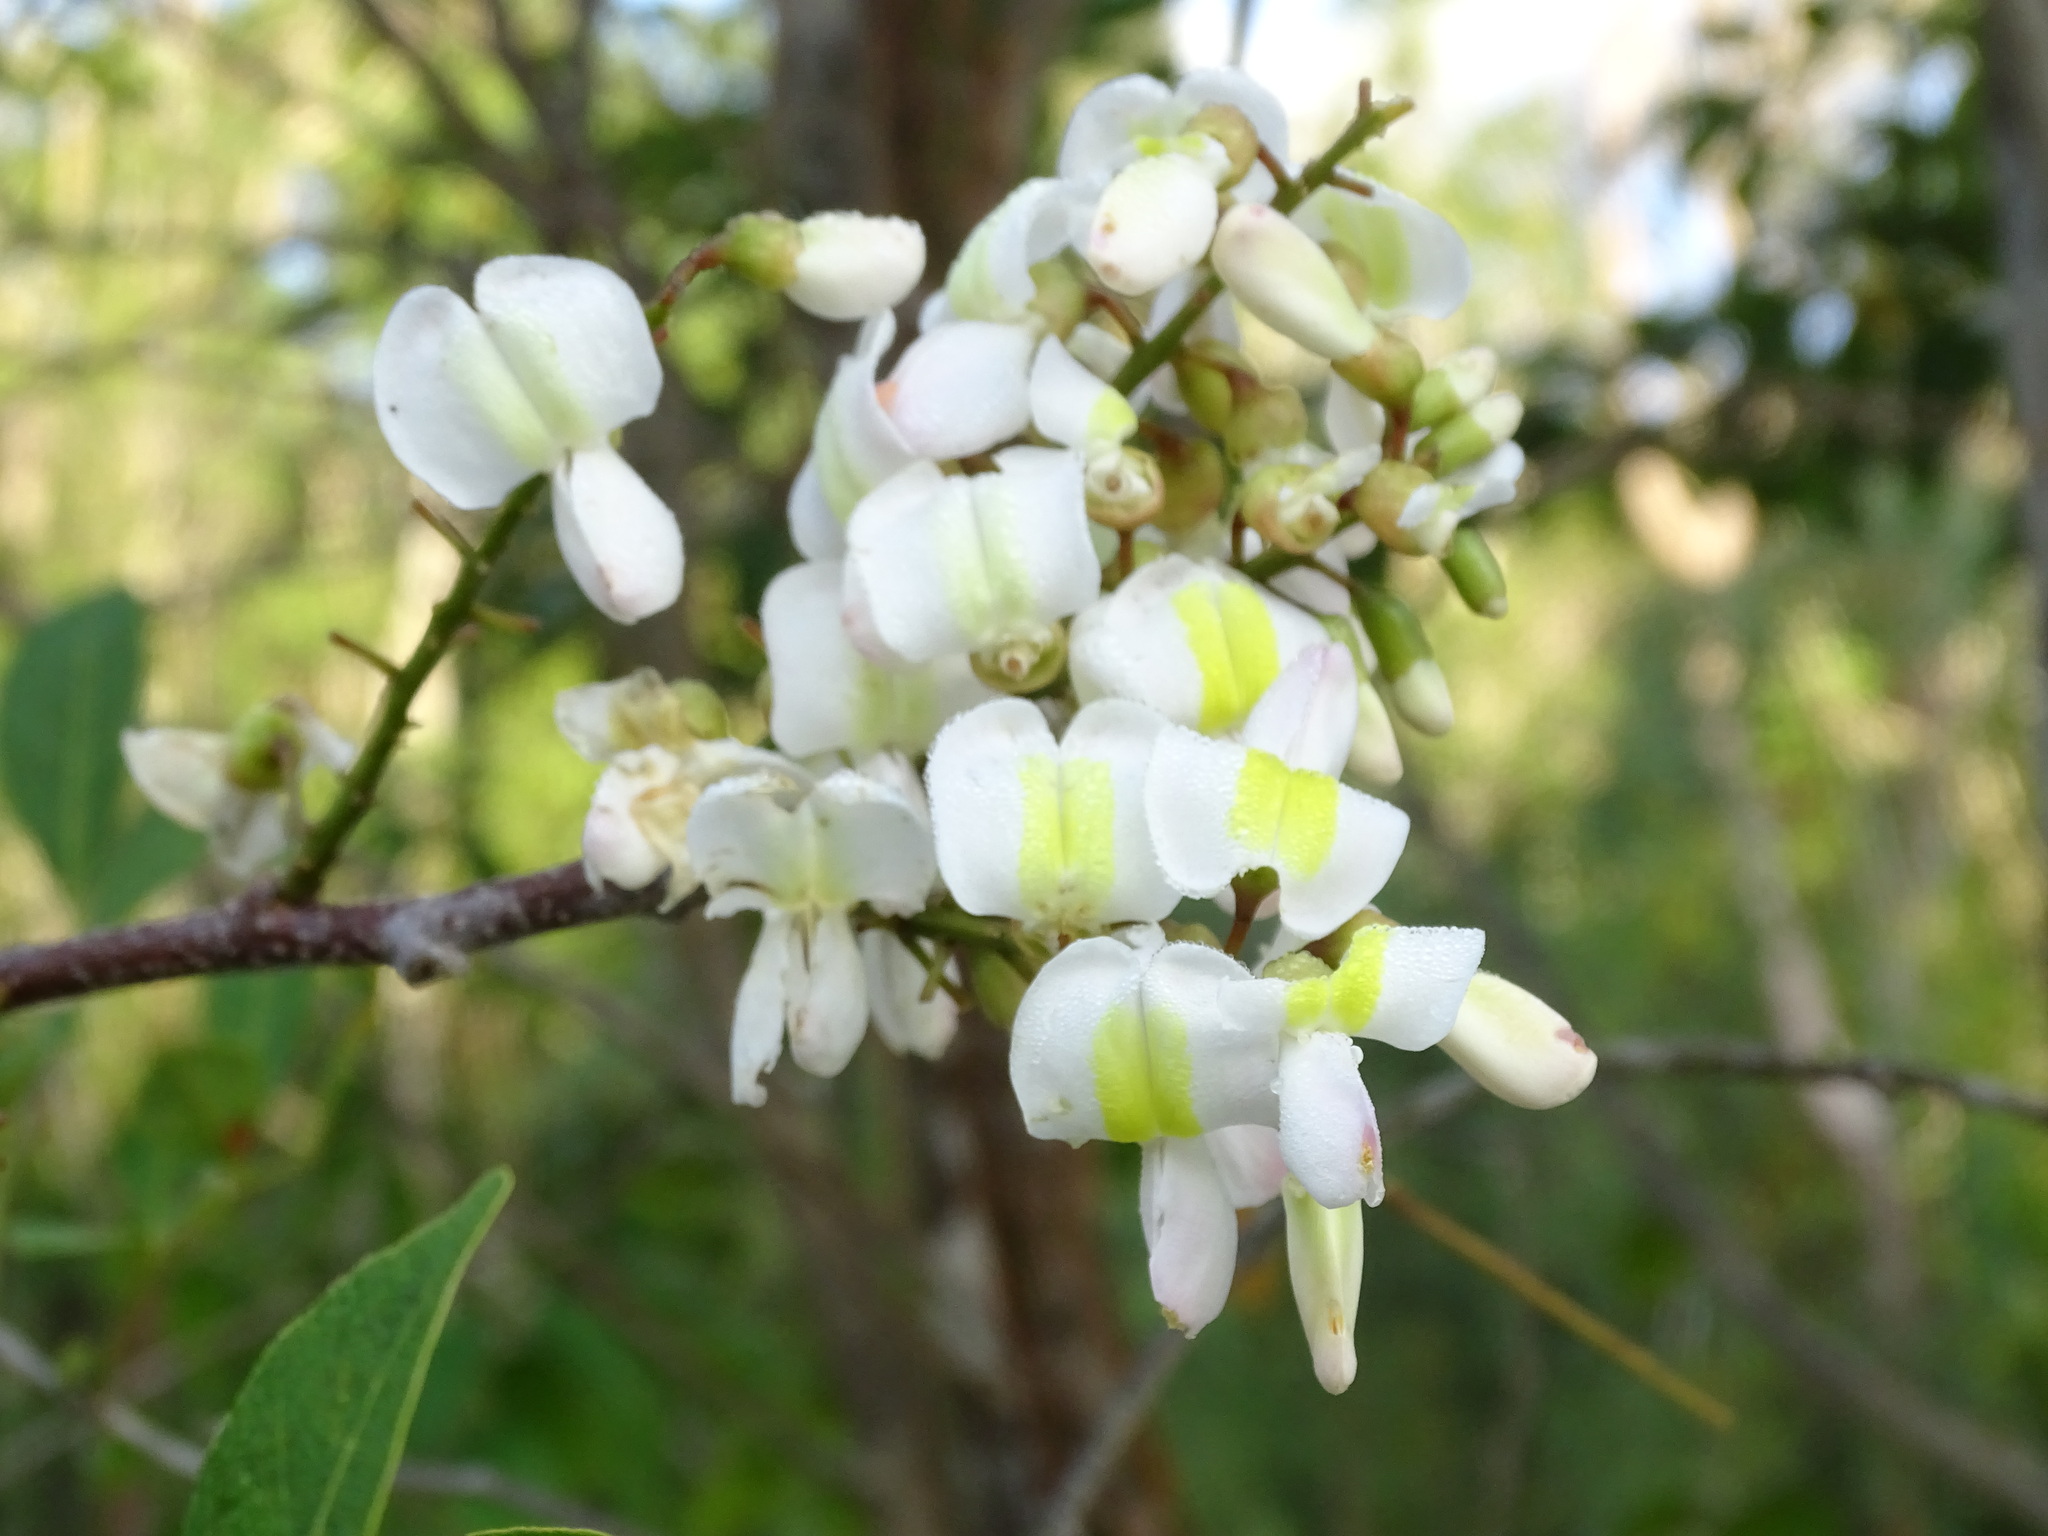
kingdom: Plantae
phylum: Tracheophyta
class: Magnoliopsida
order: Fabales
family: Fabaceae
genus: Gliricidia
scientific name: Gliricidia maculata
